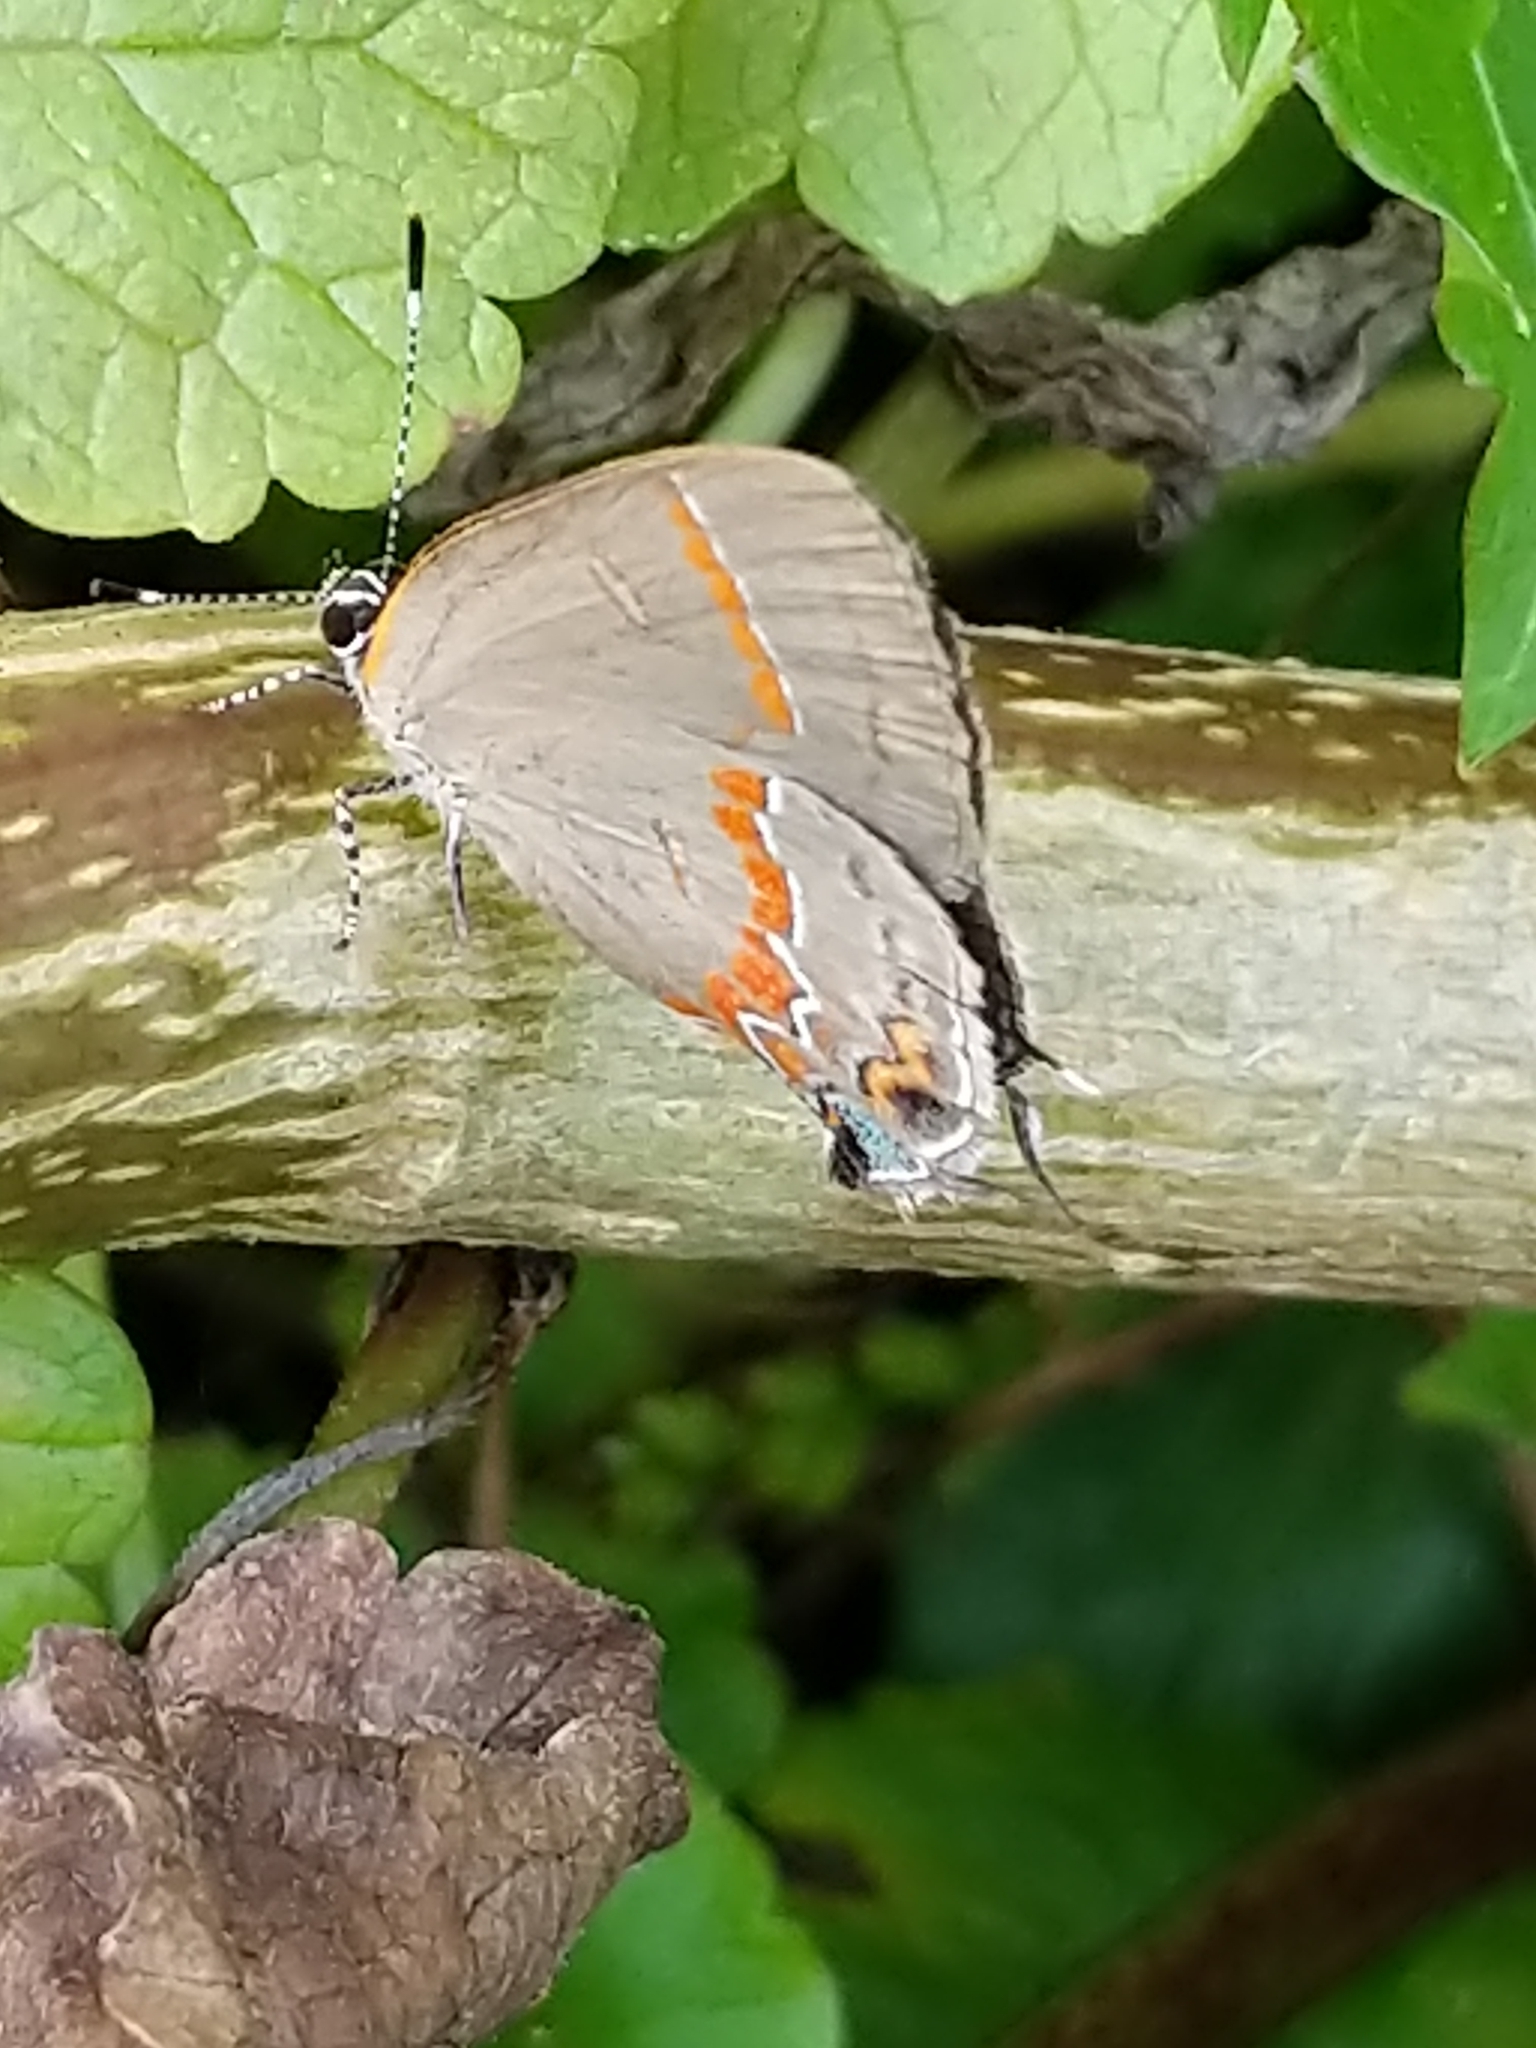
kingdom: Animalia
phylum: Arthropoda
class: Insecta
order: Lepidoptera
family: Lycaenidae
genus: Calycopis
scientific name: Calycopis cecrops
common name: Red-banded hairstreak
